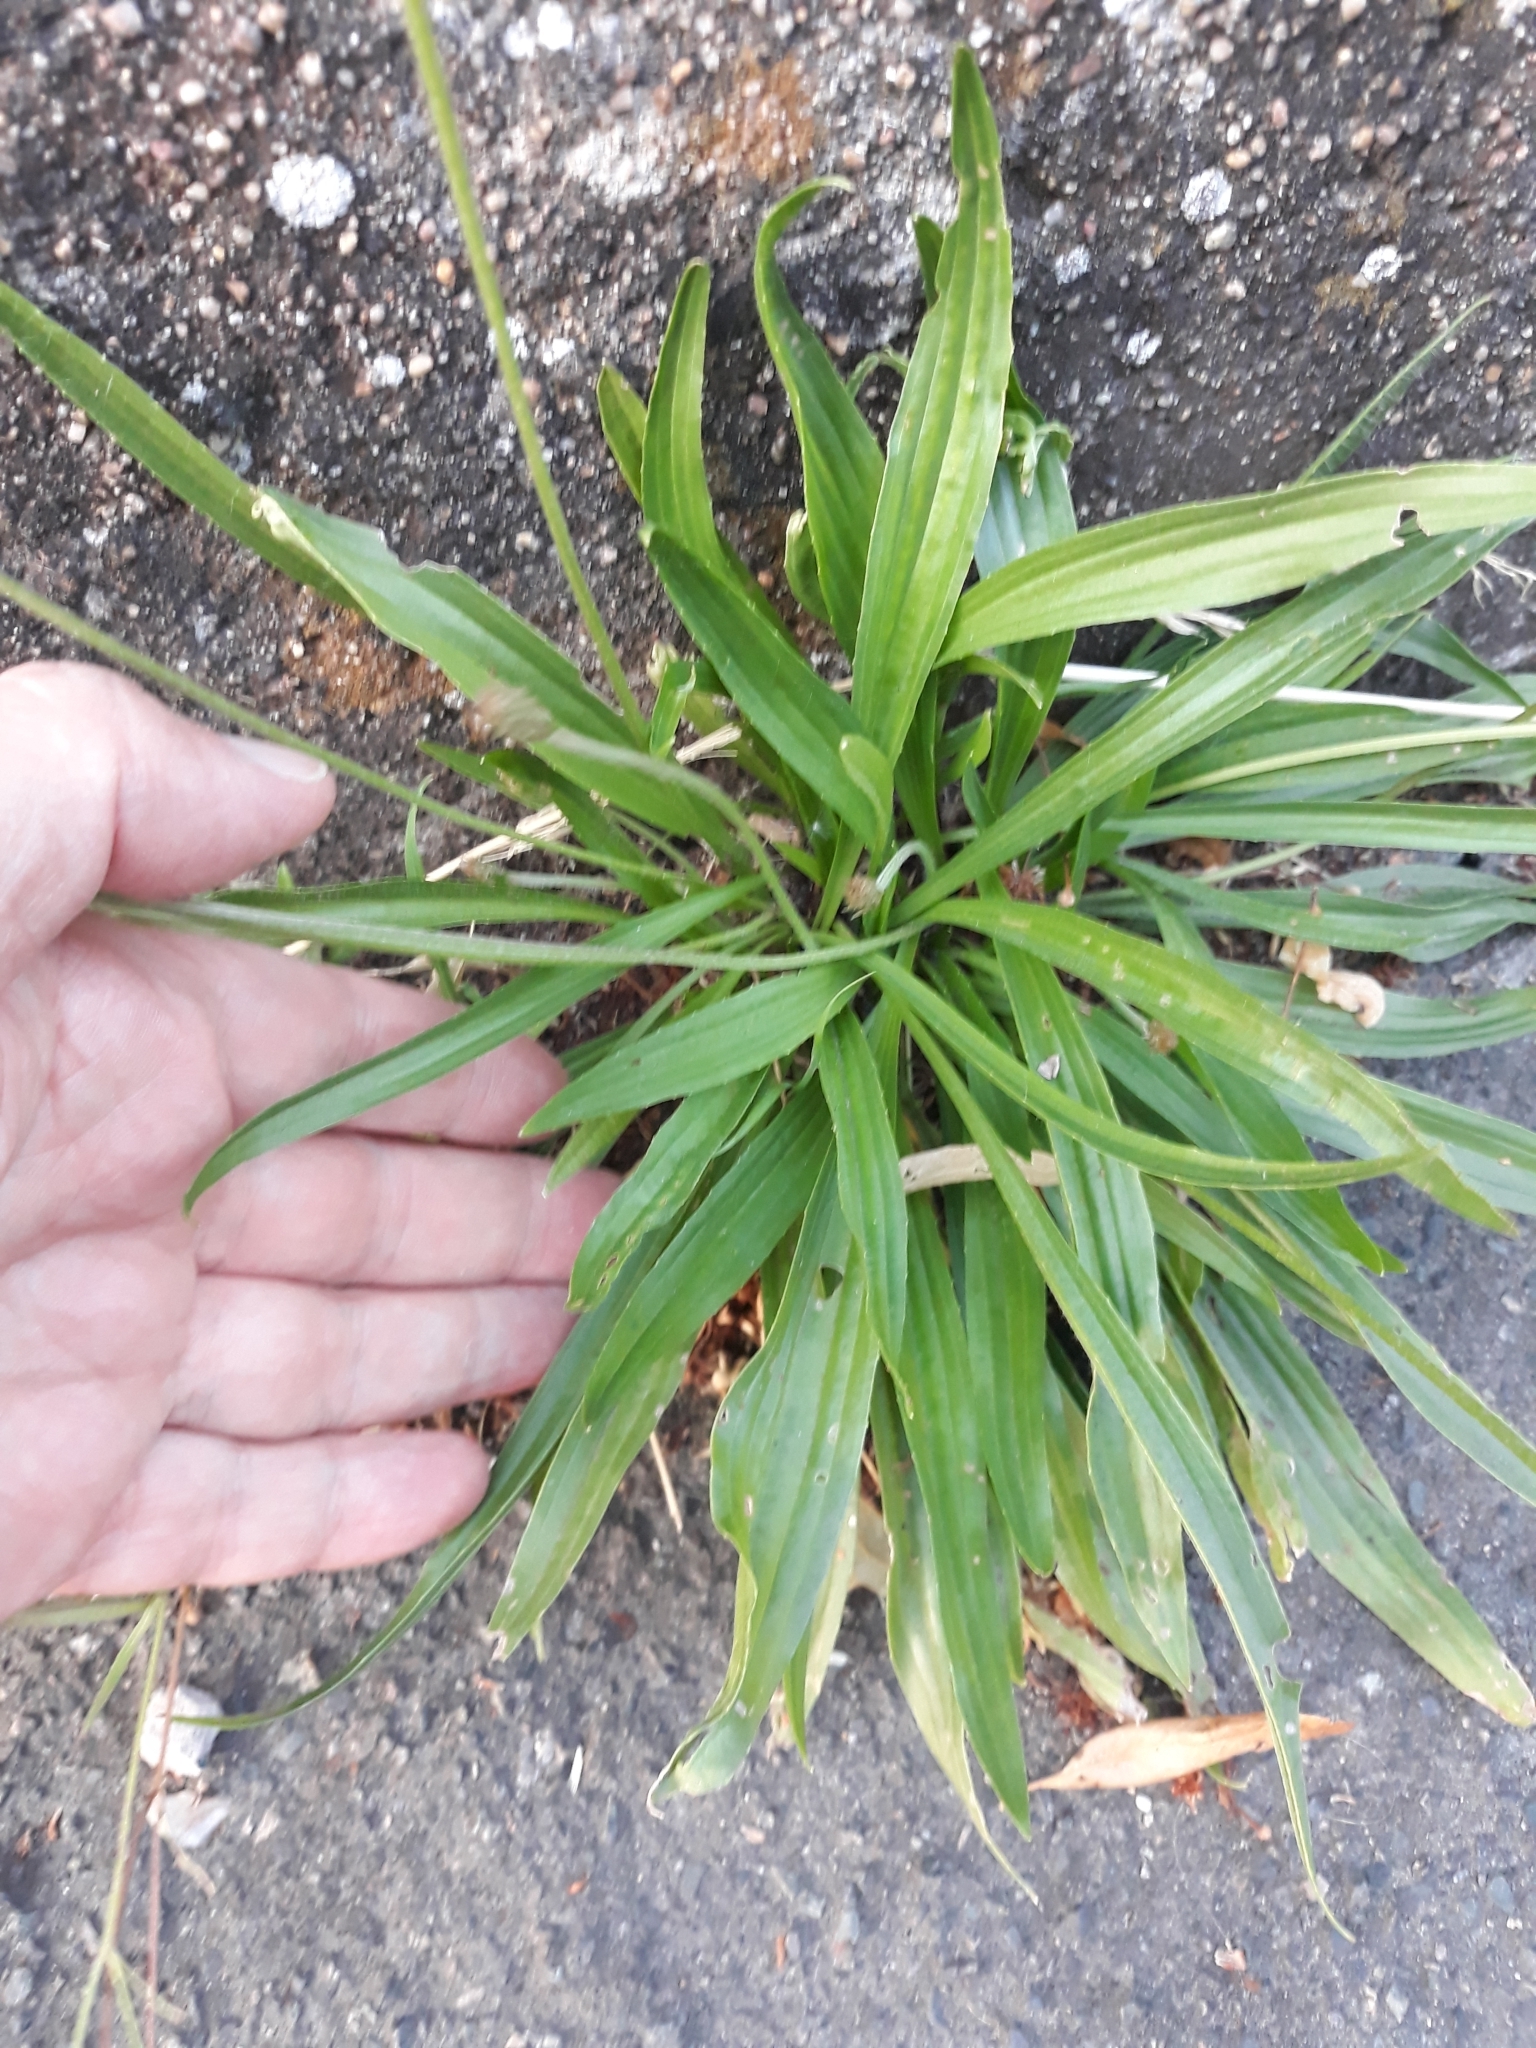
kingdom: Plantae
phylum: Tracheophyta
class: Magnoliopsida
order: Lamiales
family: Plantaginaceae
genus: Plantago
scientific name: Plantago lanceolata
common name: Ribwort plantain
